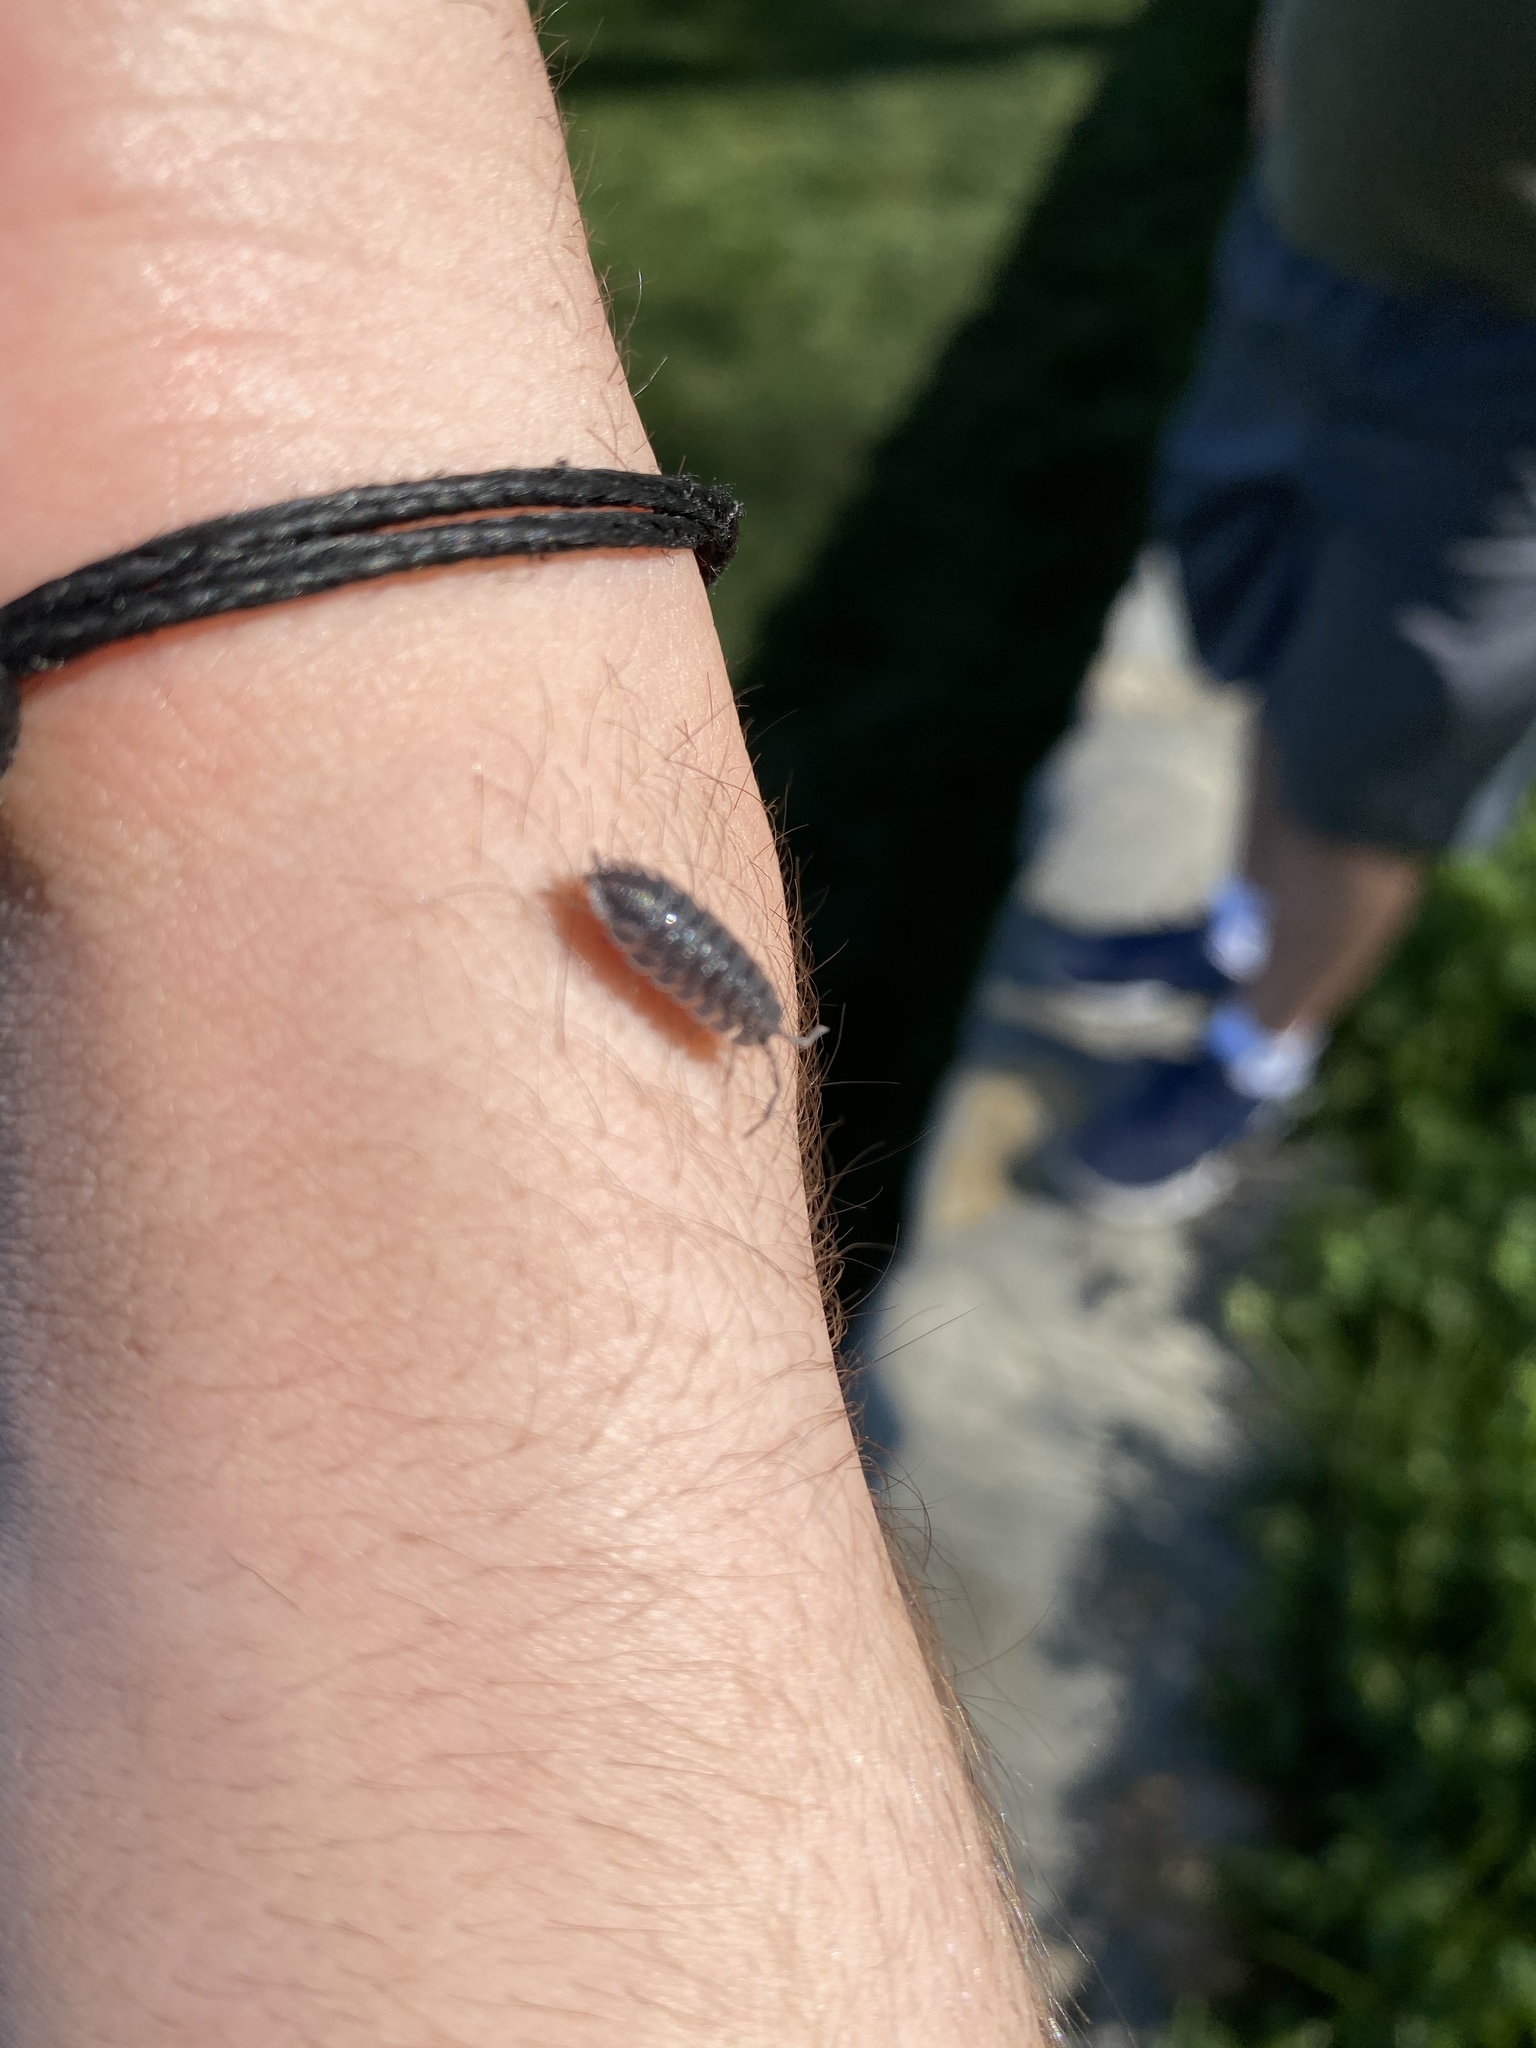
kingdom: Animalia
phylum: Arthropoda
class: Malacostraca
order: Isopoda
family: Porcellionidae
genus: Porcellio
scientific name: Porcellio scaber
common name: Common rough woodlouse
